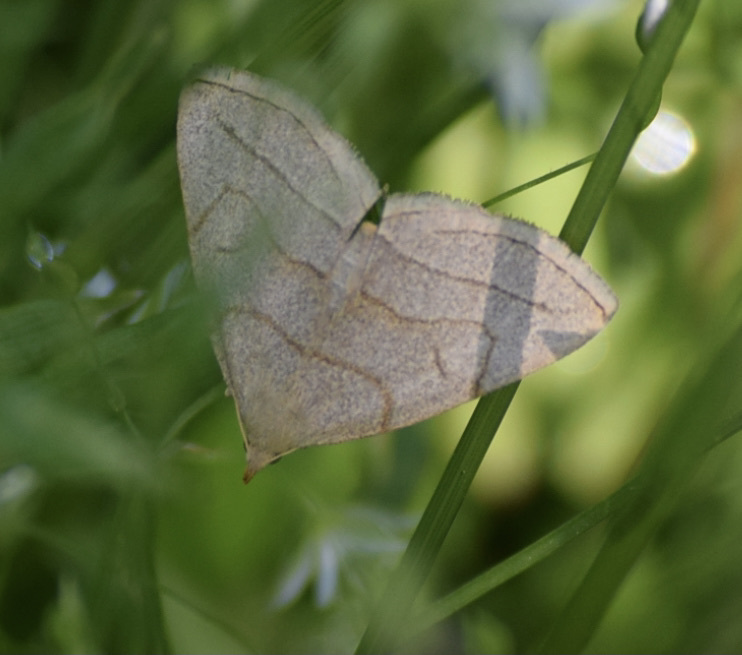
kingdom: Animalia
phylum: Arthropoda
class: Insecta
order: Lepidoptera
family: Erebidae
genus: Zanclognatha
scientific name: Zanclognatha pedipilalis
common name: Grayish fan-foot
